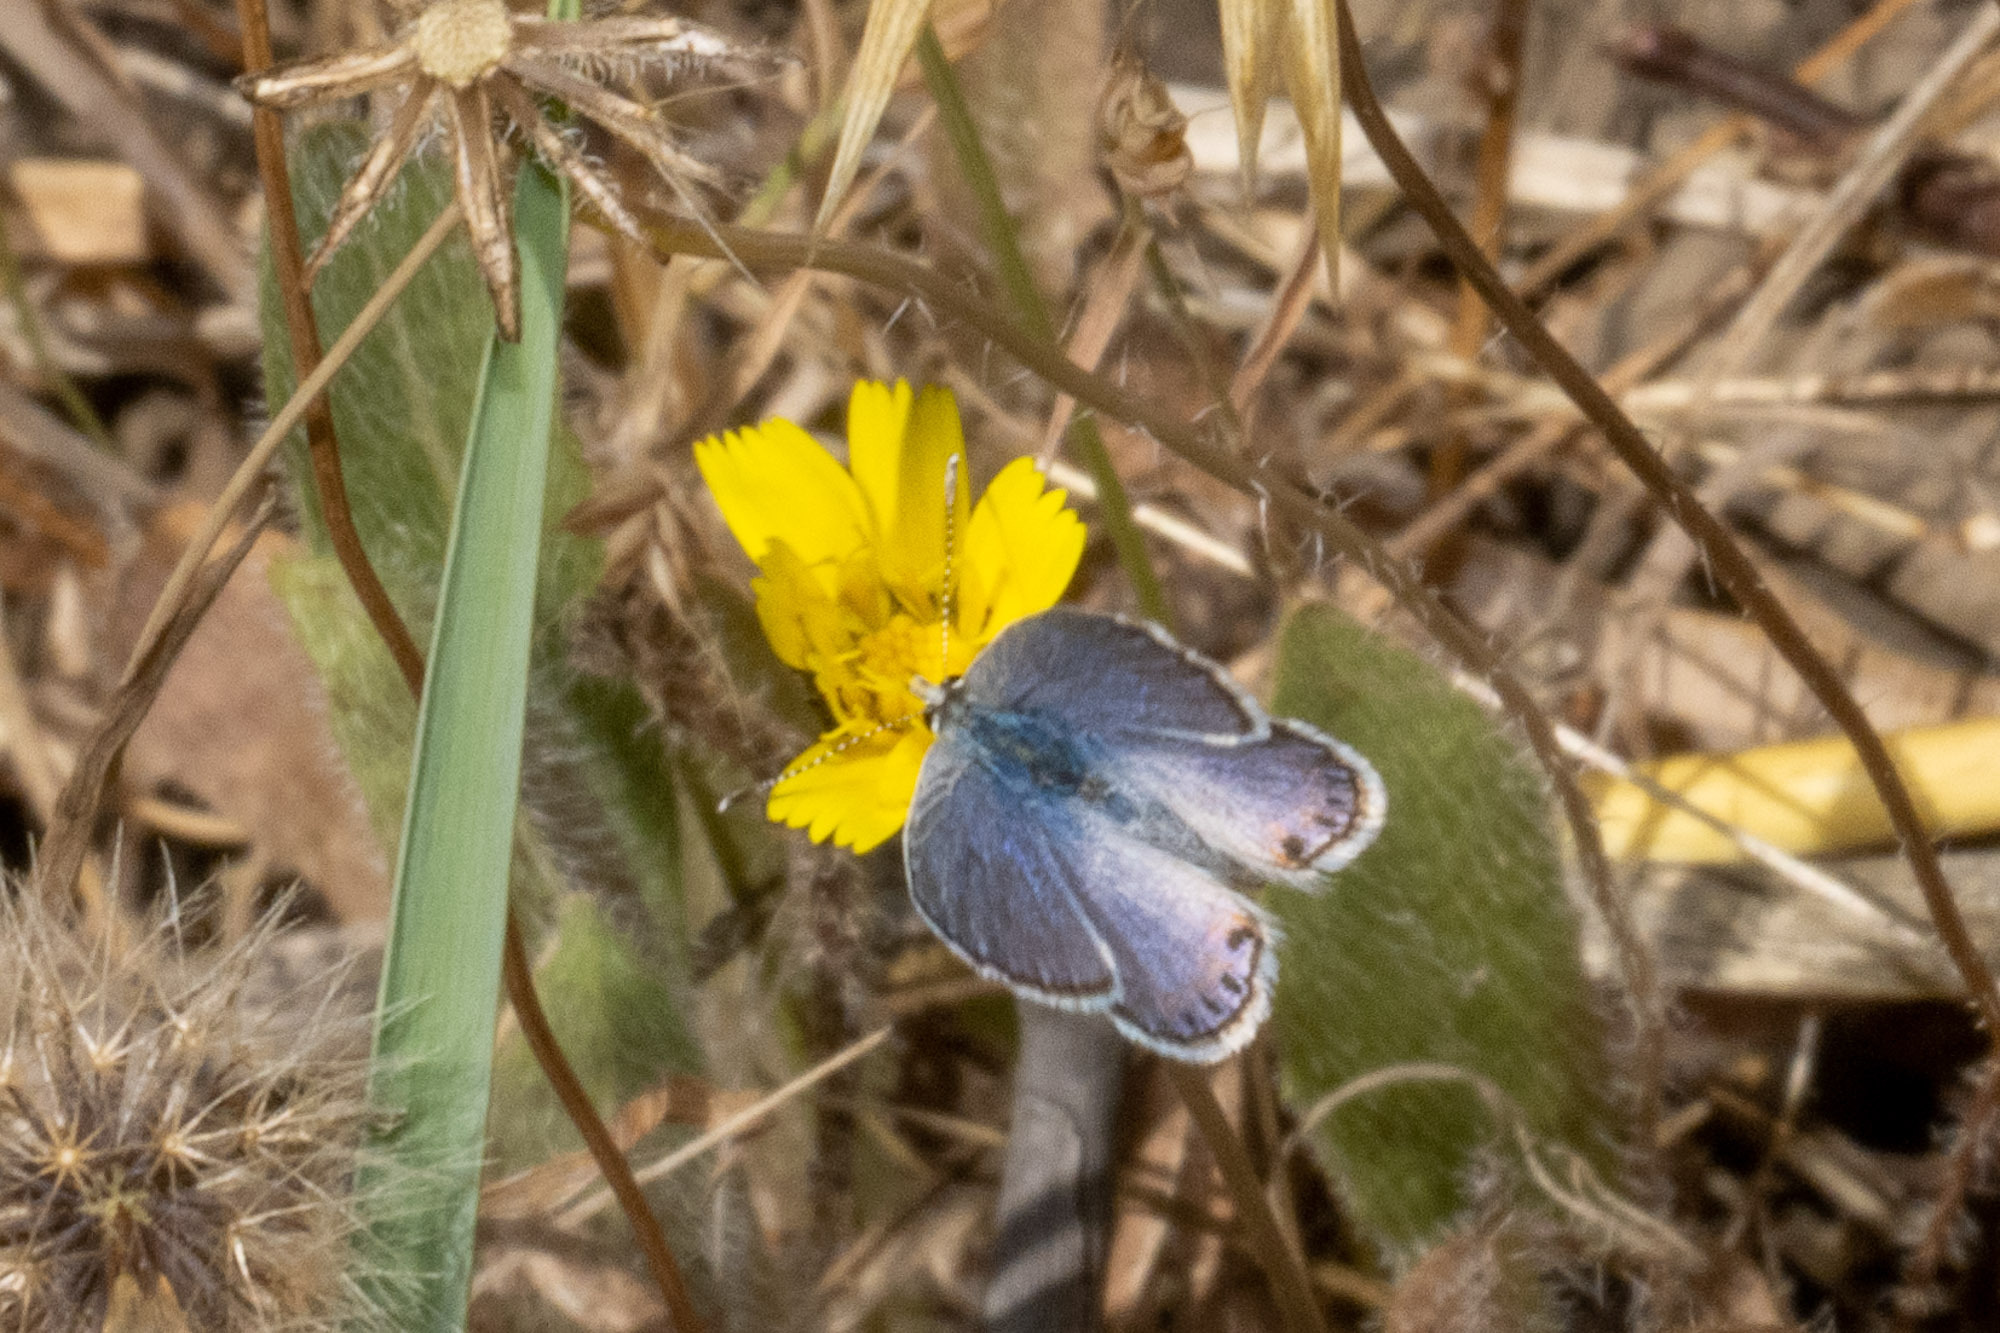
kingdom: Animalia
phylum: Arthropoda
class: Insecta
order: Lepidoptera
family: Lycaenidae
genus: Icaricia
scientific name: Icaricia acmon
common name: Acmon blue
